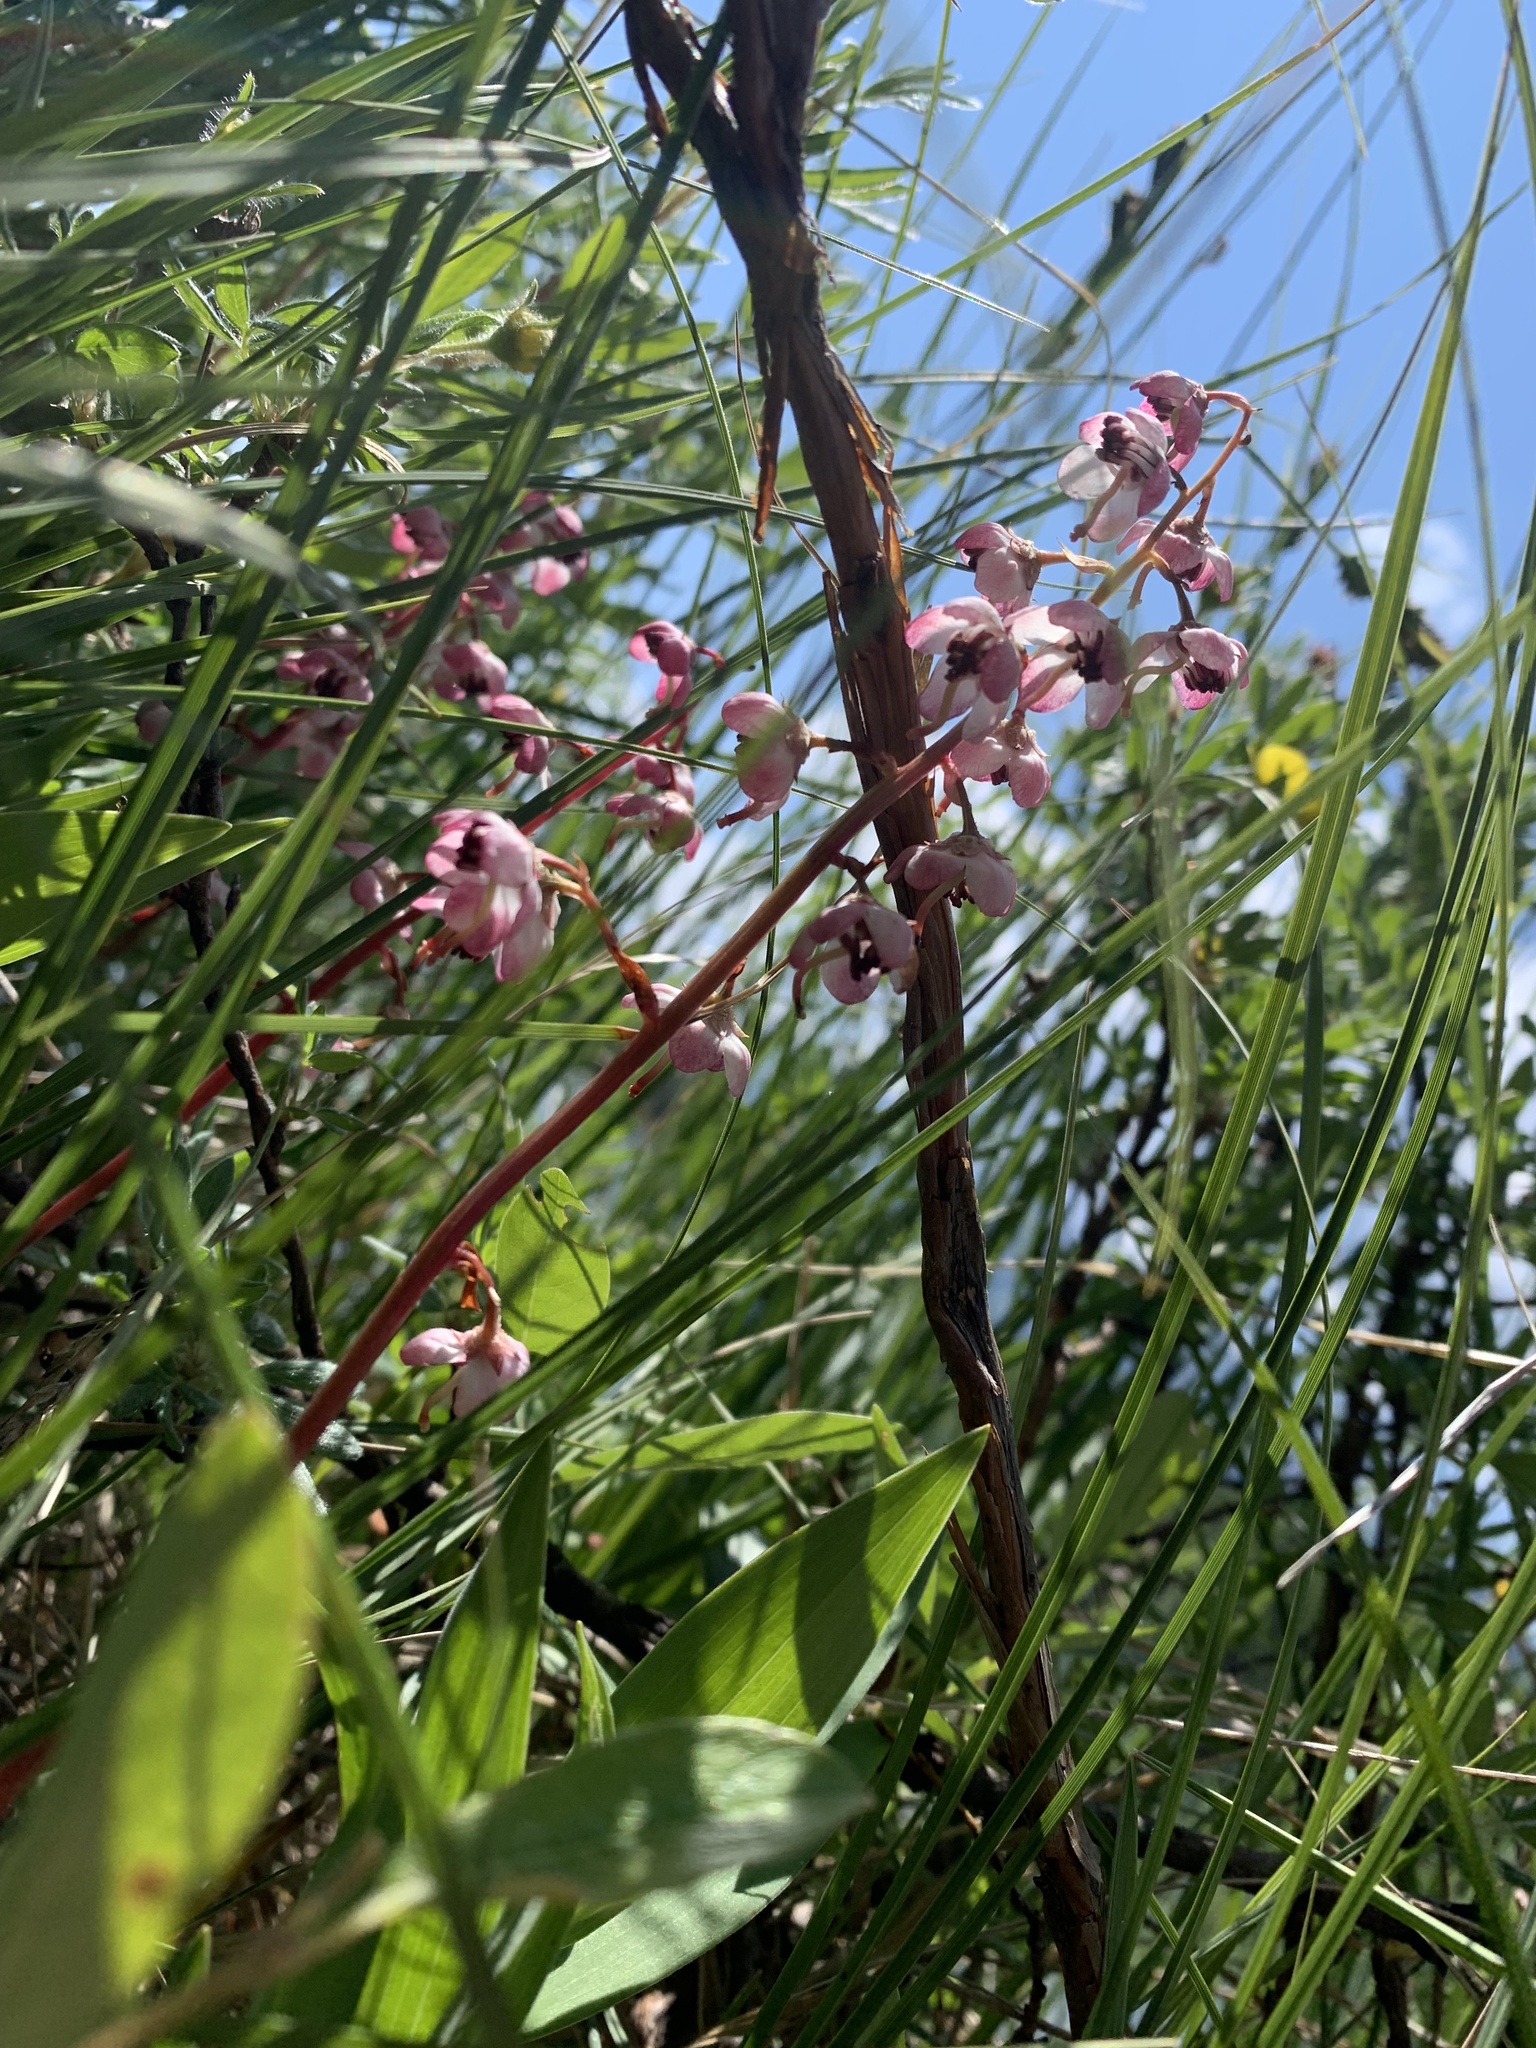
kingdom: Plantae
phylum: Tracheophyta
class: Magnoliopsida
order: Ericales
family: Ericaceae
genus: Pyrola
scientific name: Pyrola asarifolia
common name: Bog wintergreen
